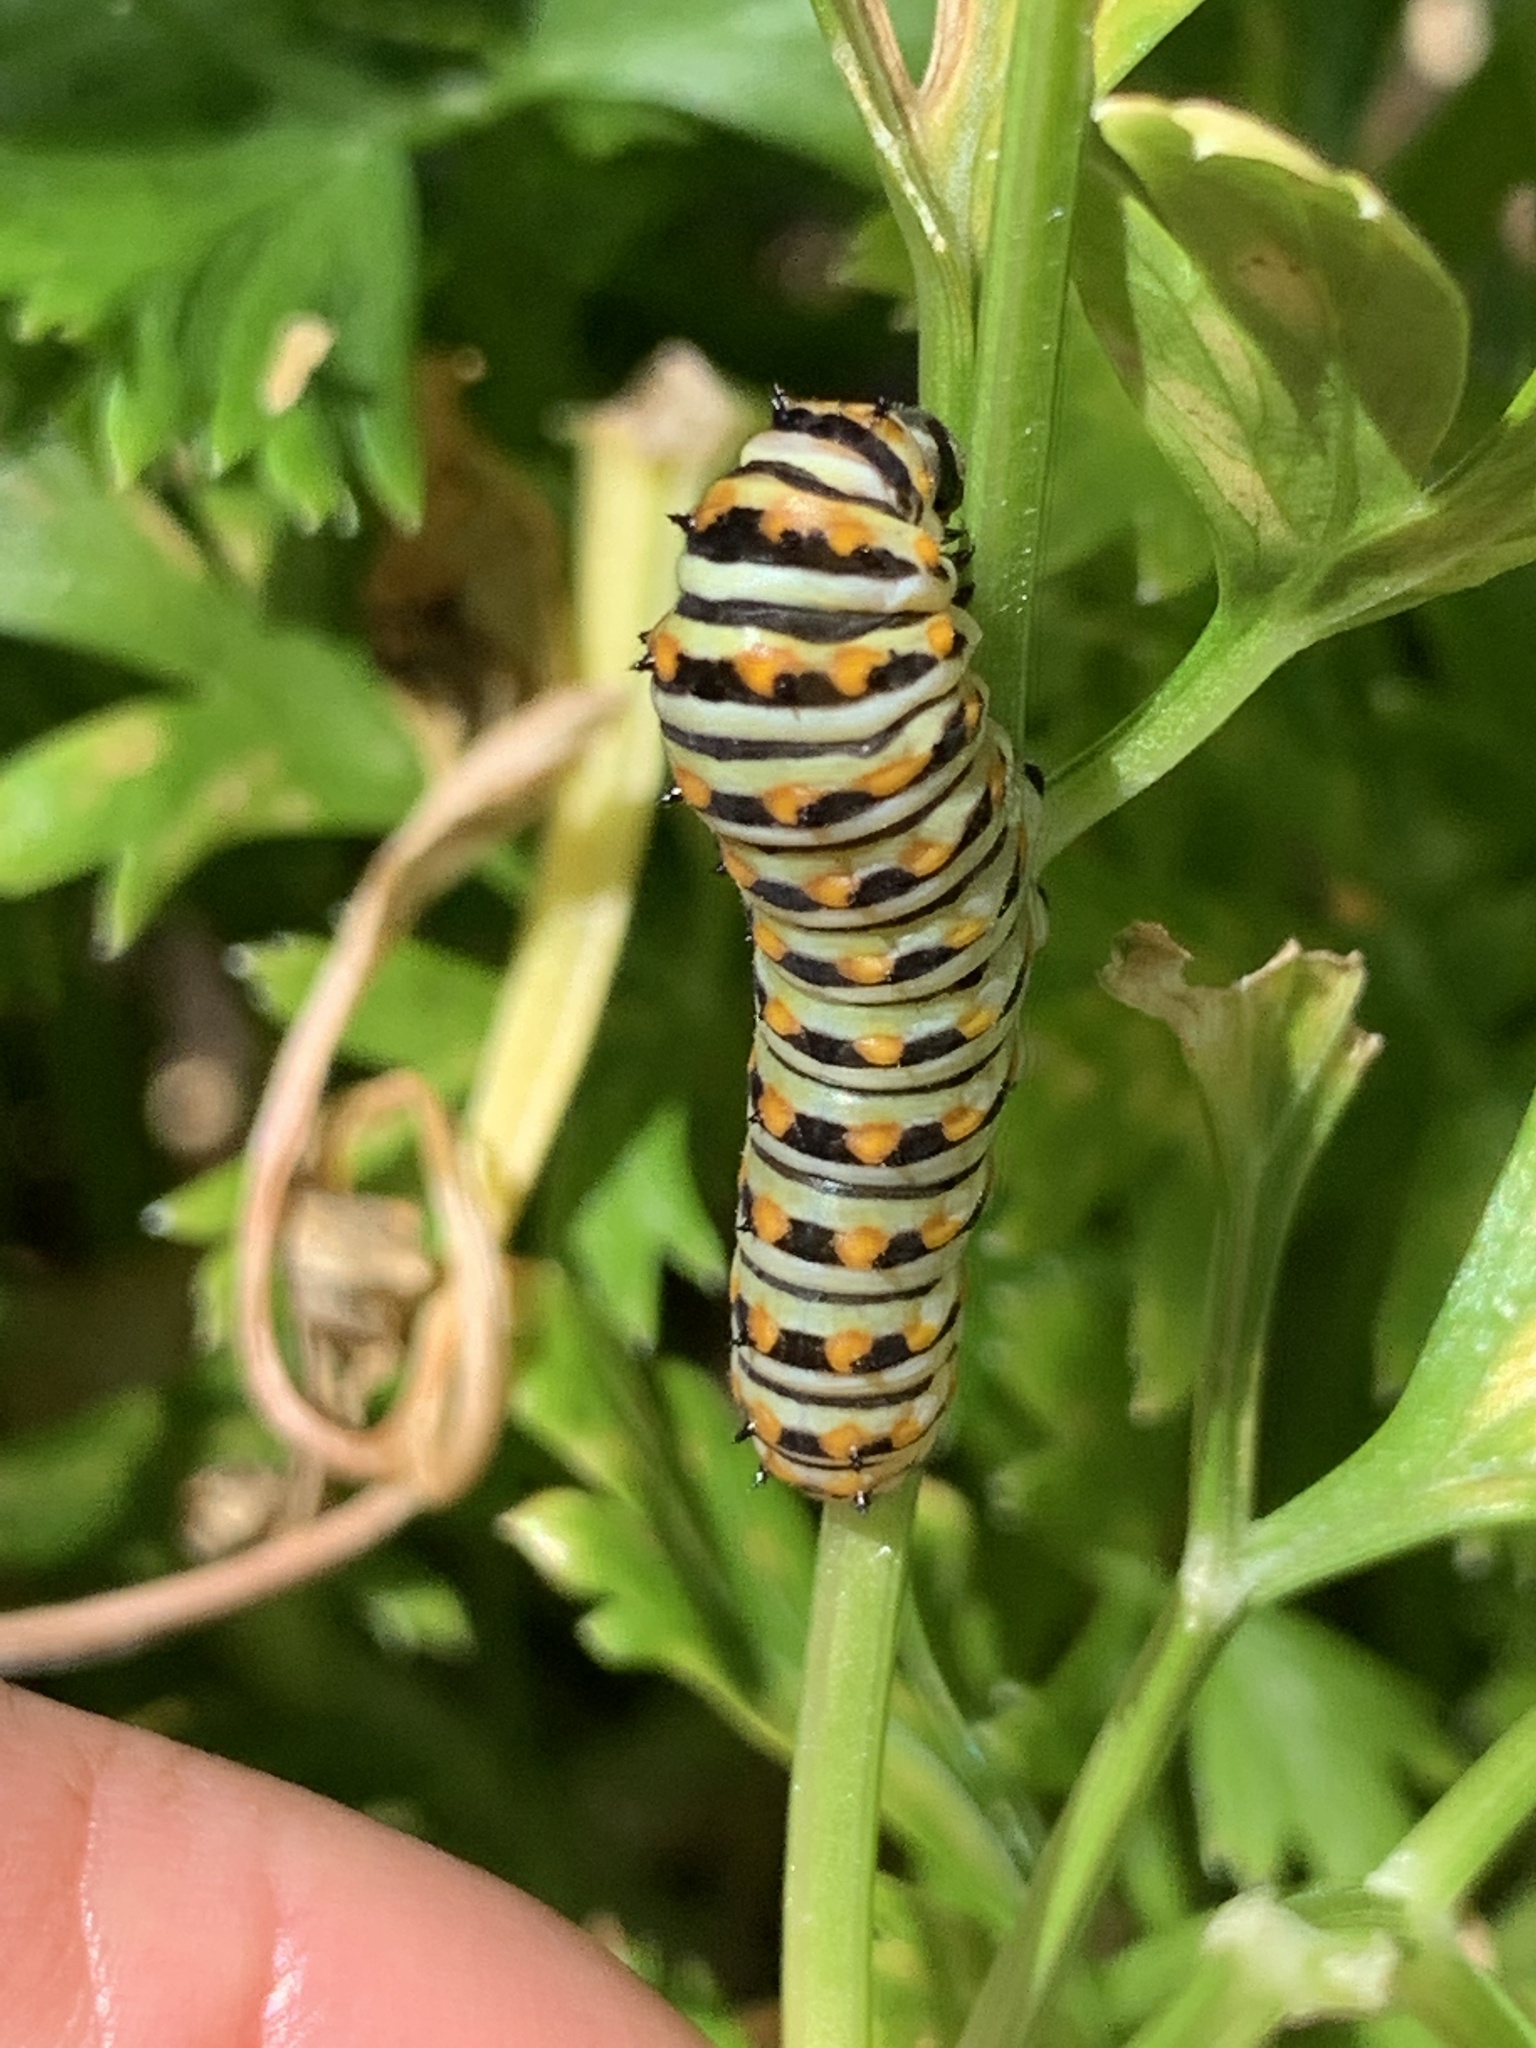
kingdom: Animalia
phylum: Arthropoda
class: Insecta
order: Lepidoptera
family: Papilionidae
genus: Papilio
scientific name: Papilio polyxenes
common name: Black swallowtail
